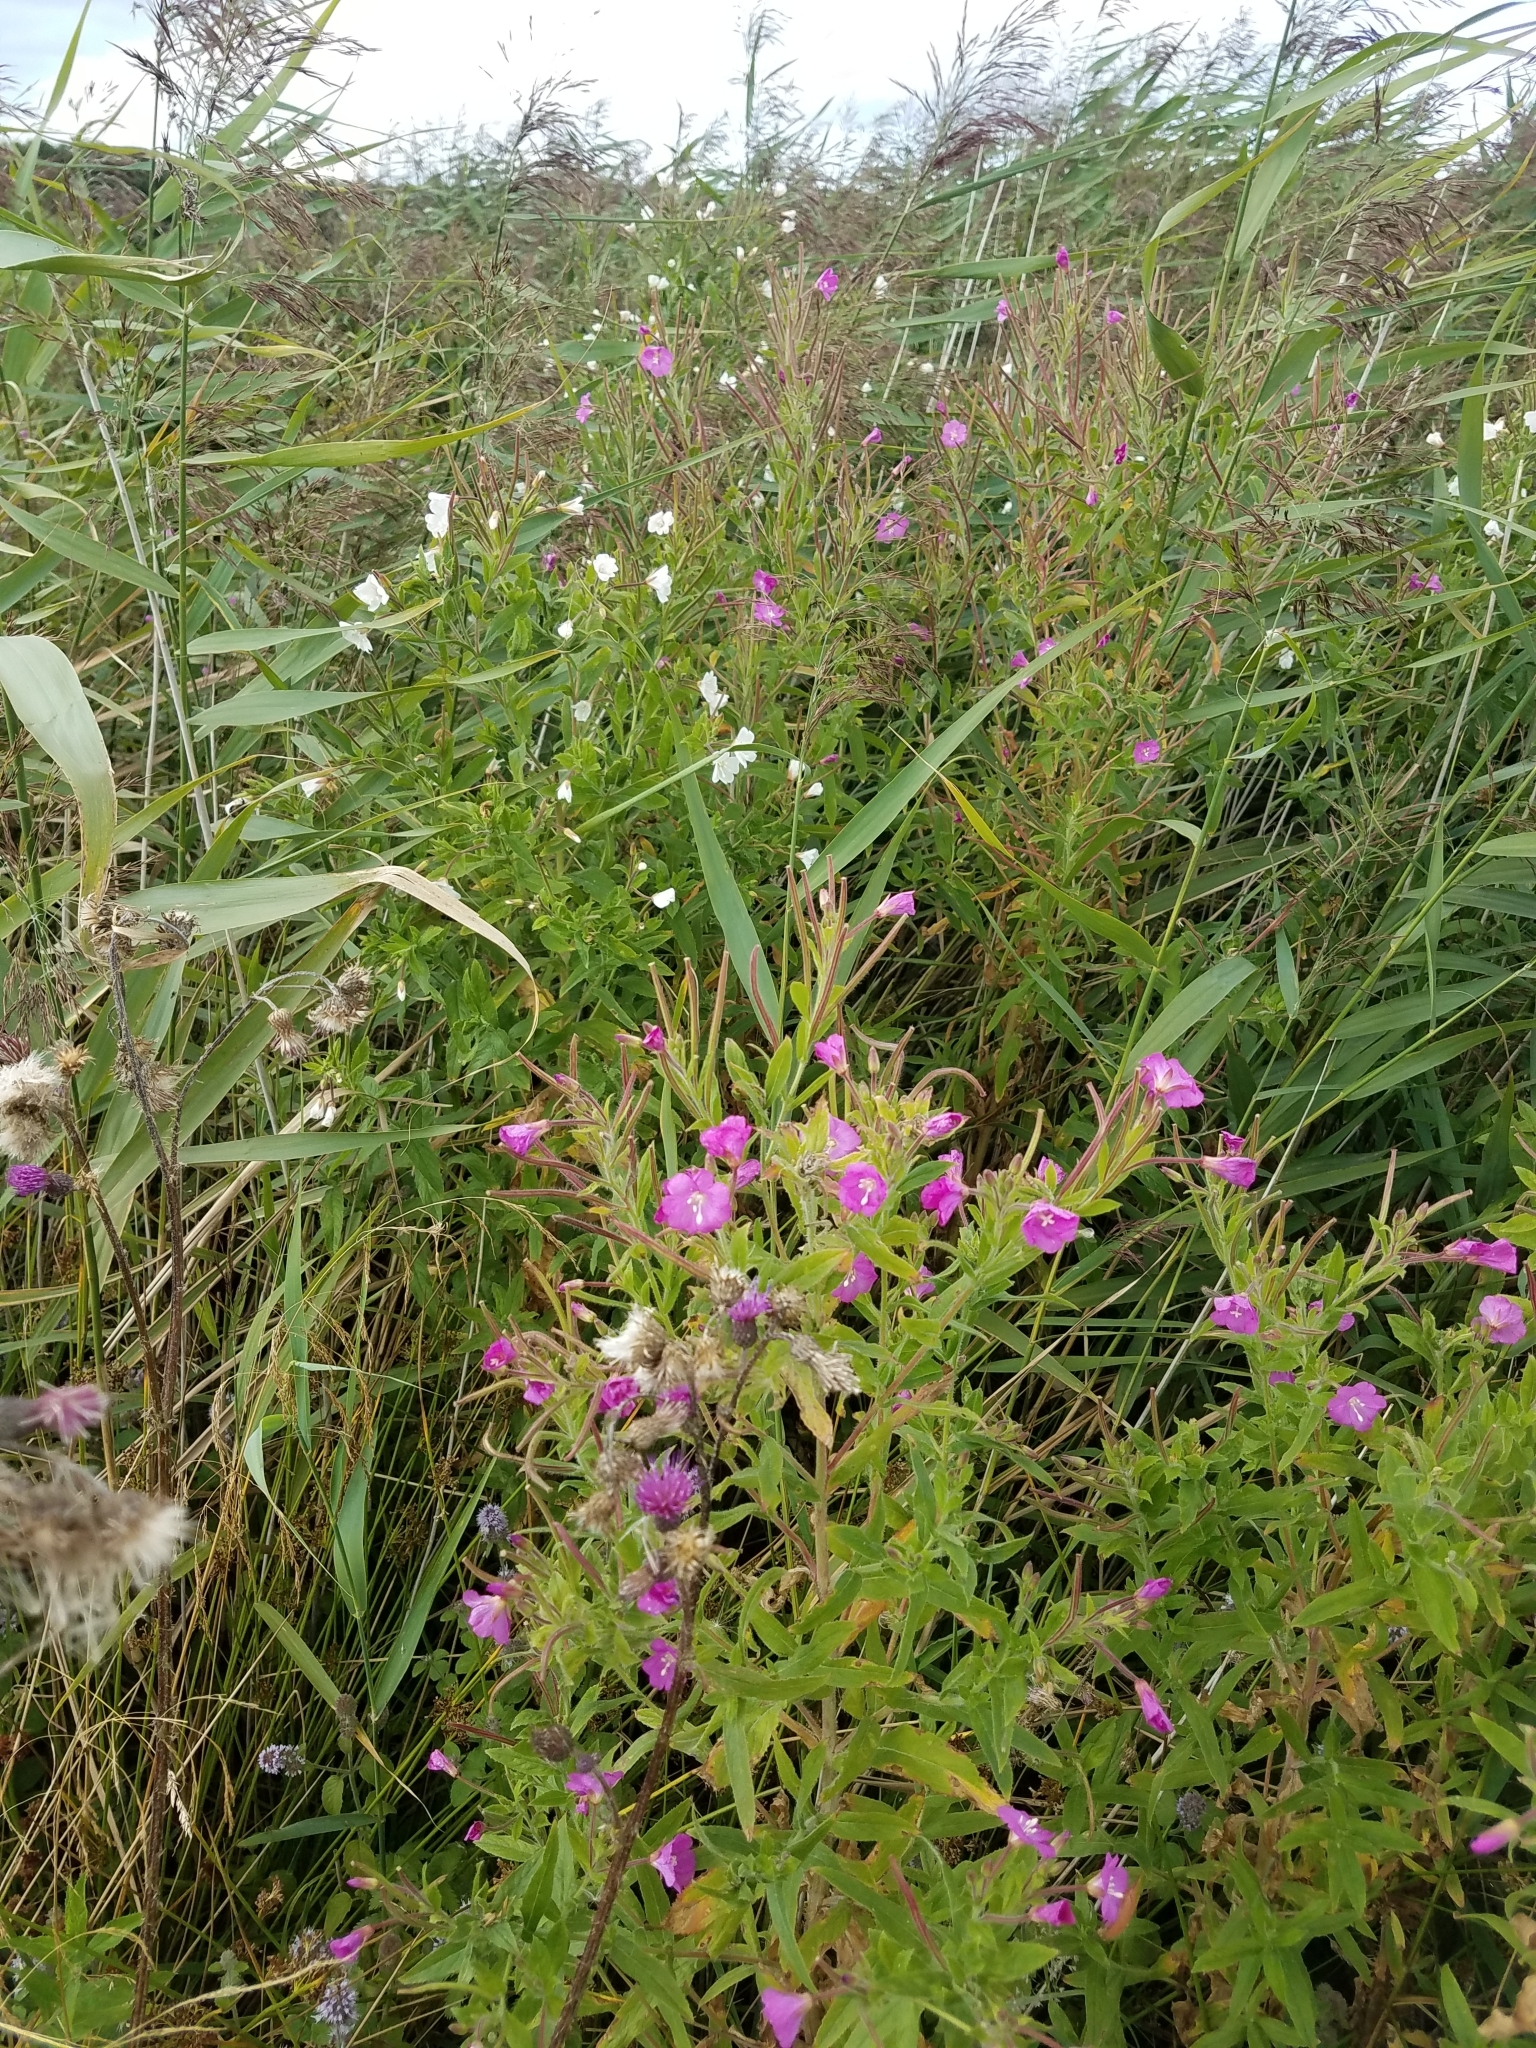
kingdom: Plantae
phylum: Tracheophyta
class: Magnoliopsida
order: Myrtales
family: Onagraceae
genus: Epilobium
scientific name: Epilobium hirsutum
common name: Great willowherb
